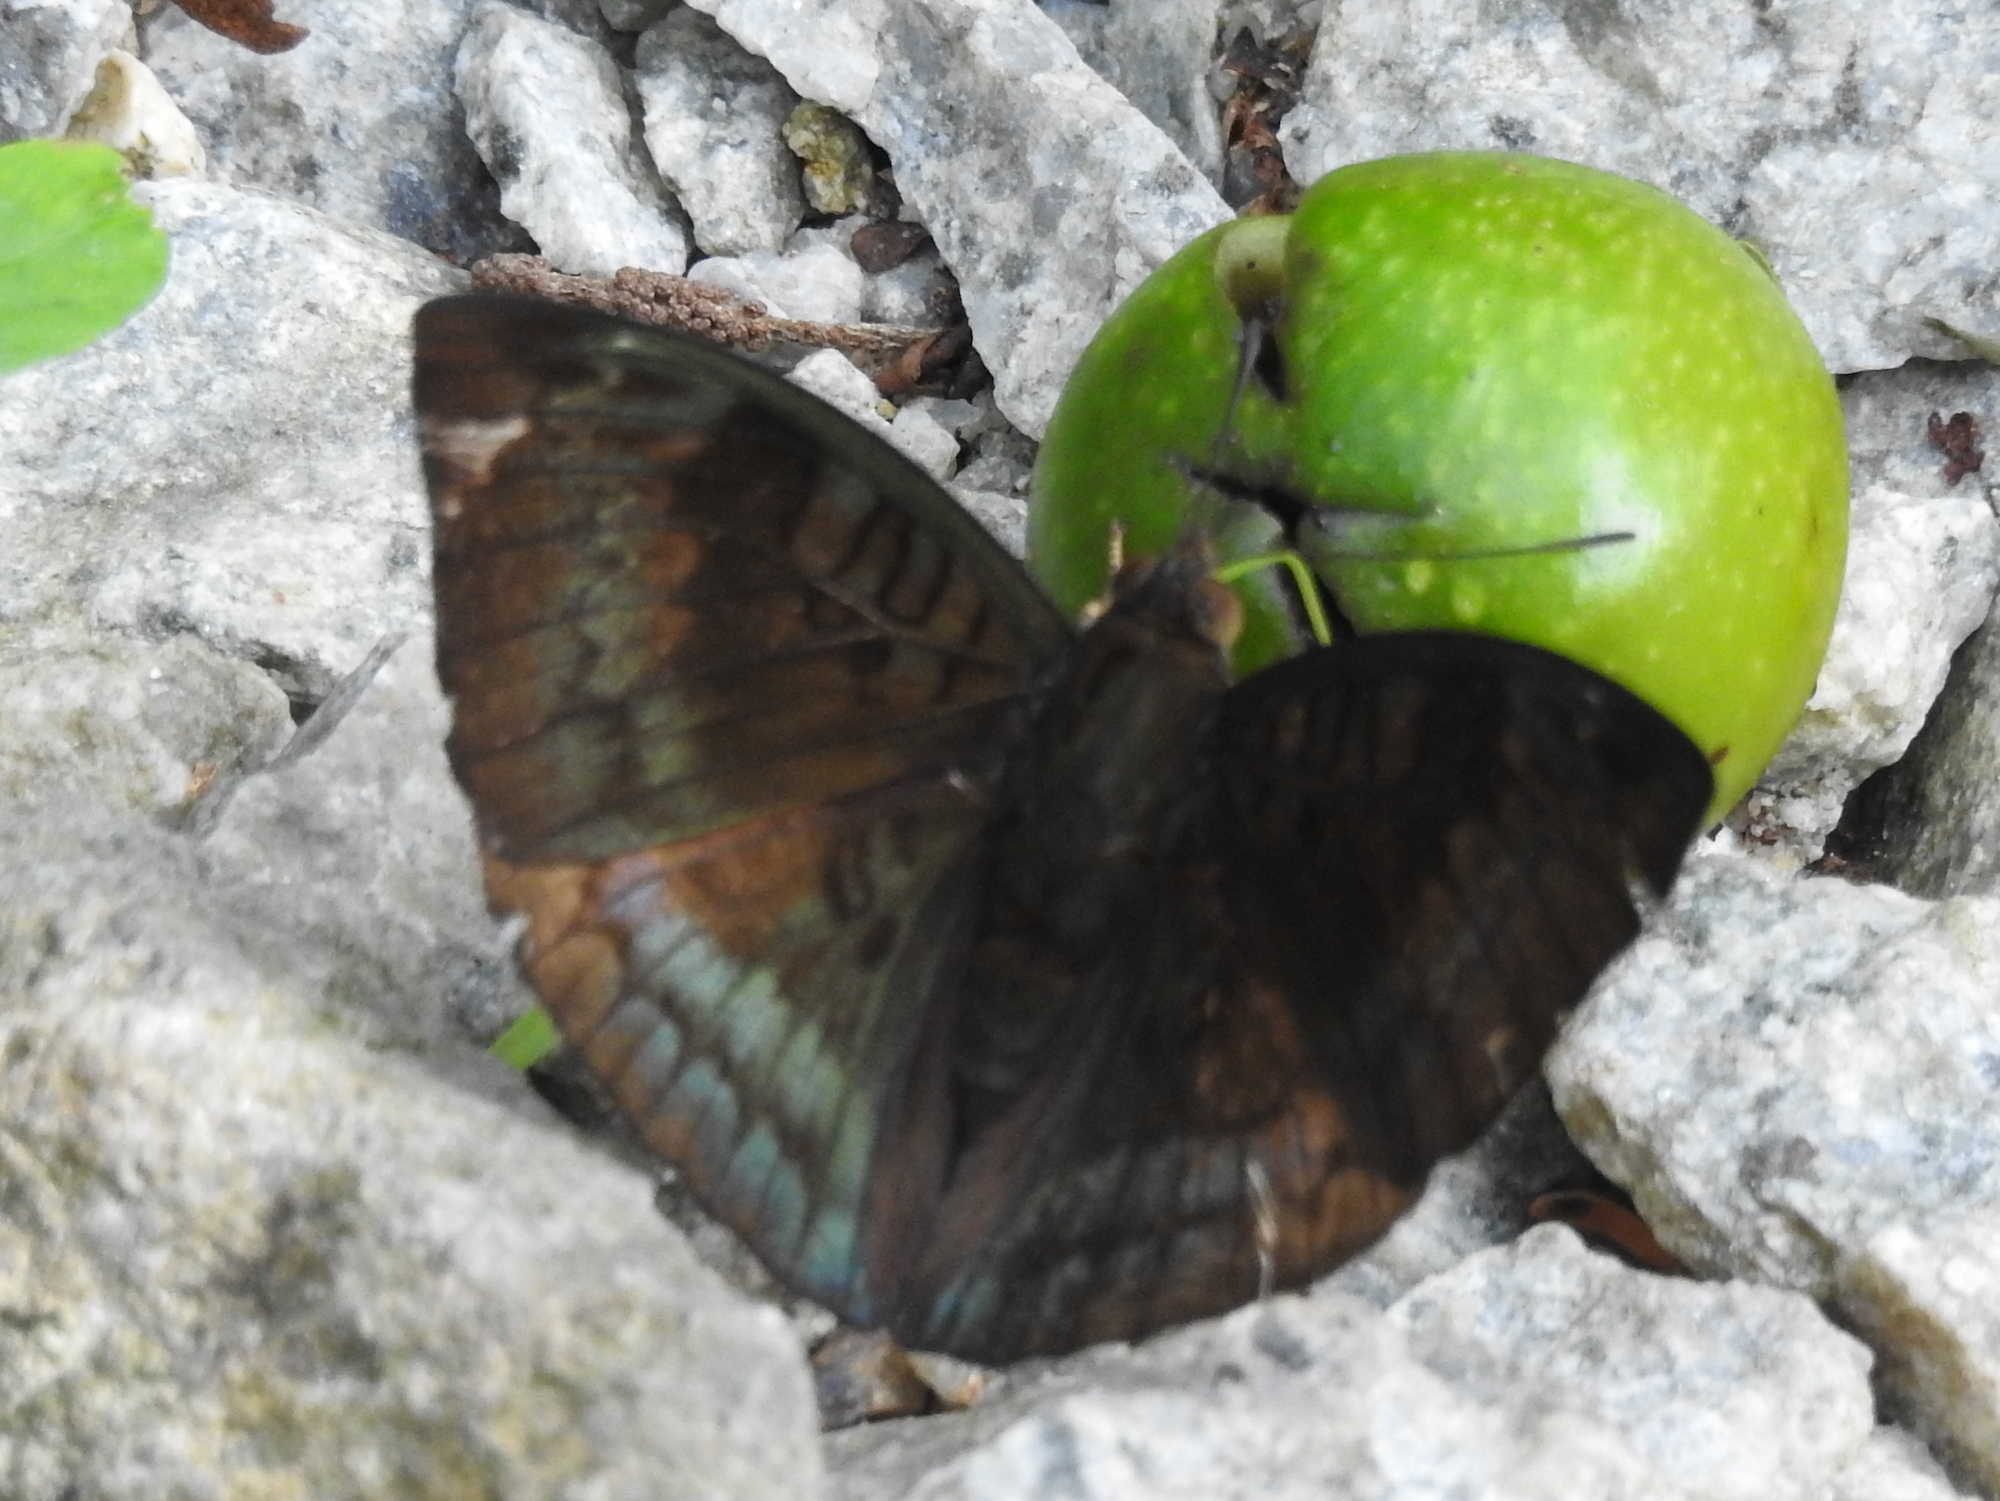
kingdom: Animalia
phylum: Arthropoda
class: Insecta
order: Lepidoptera
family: Nymphalidae
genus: Euthalia
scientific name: Euthalia monina
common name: Powdered baron
